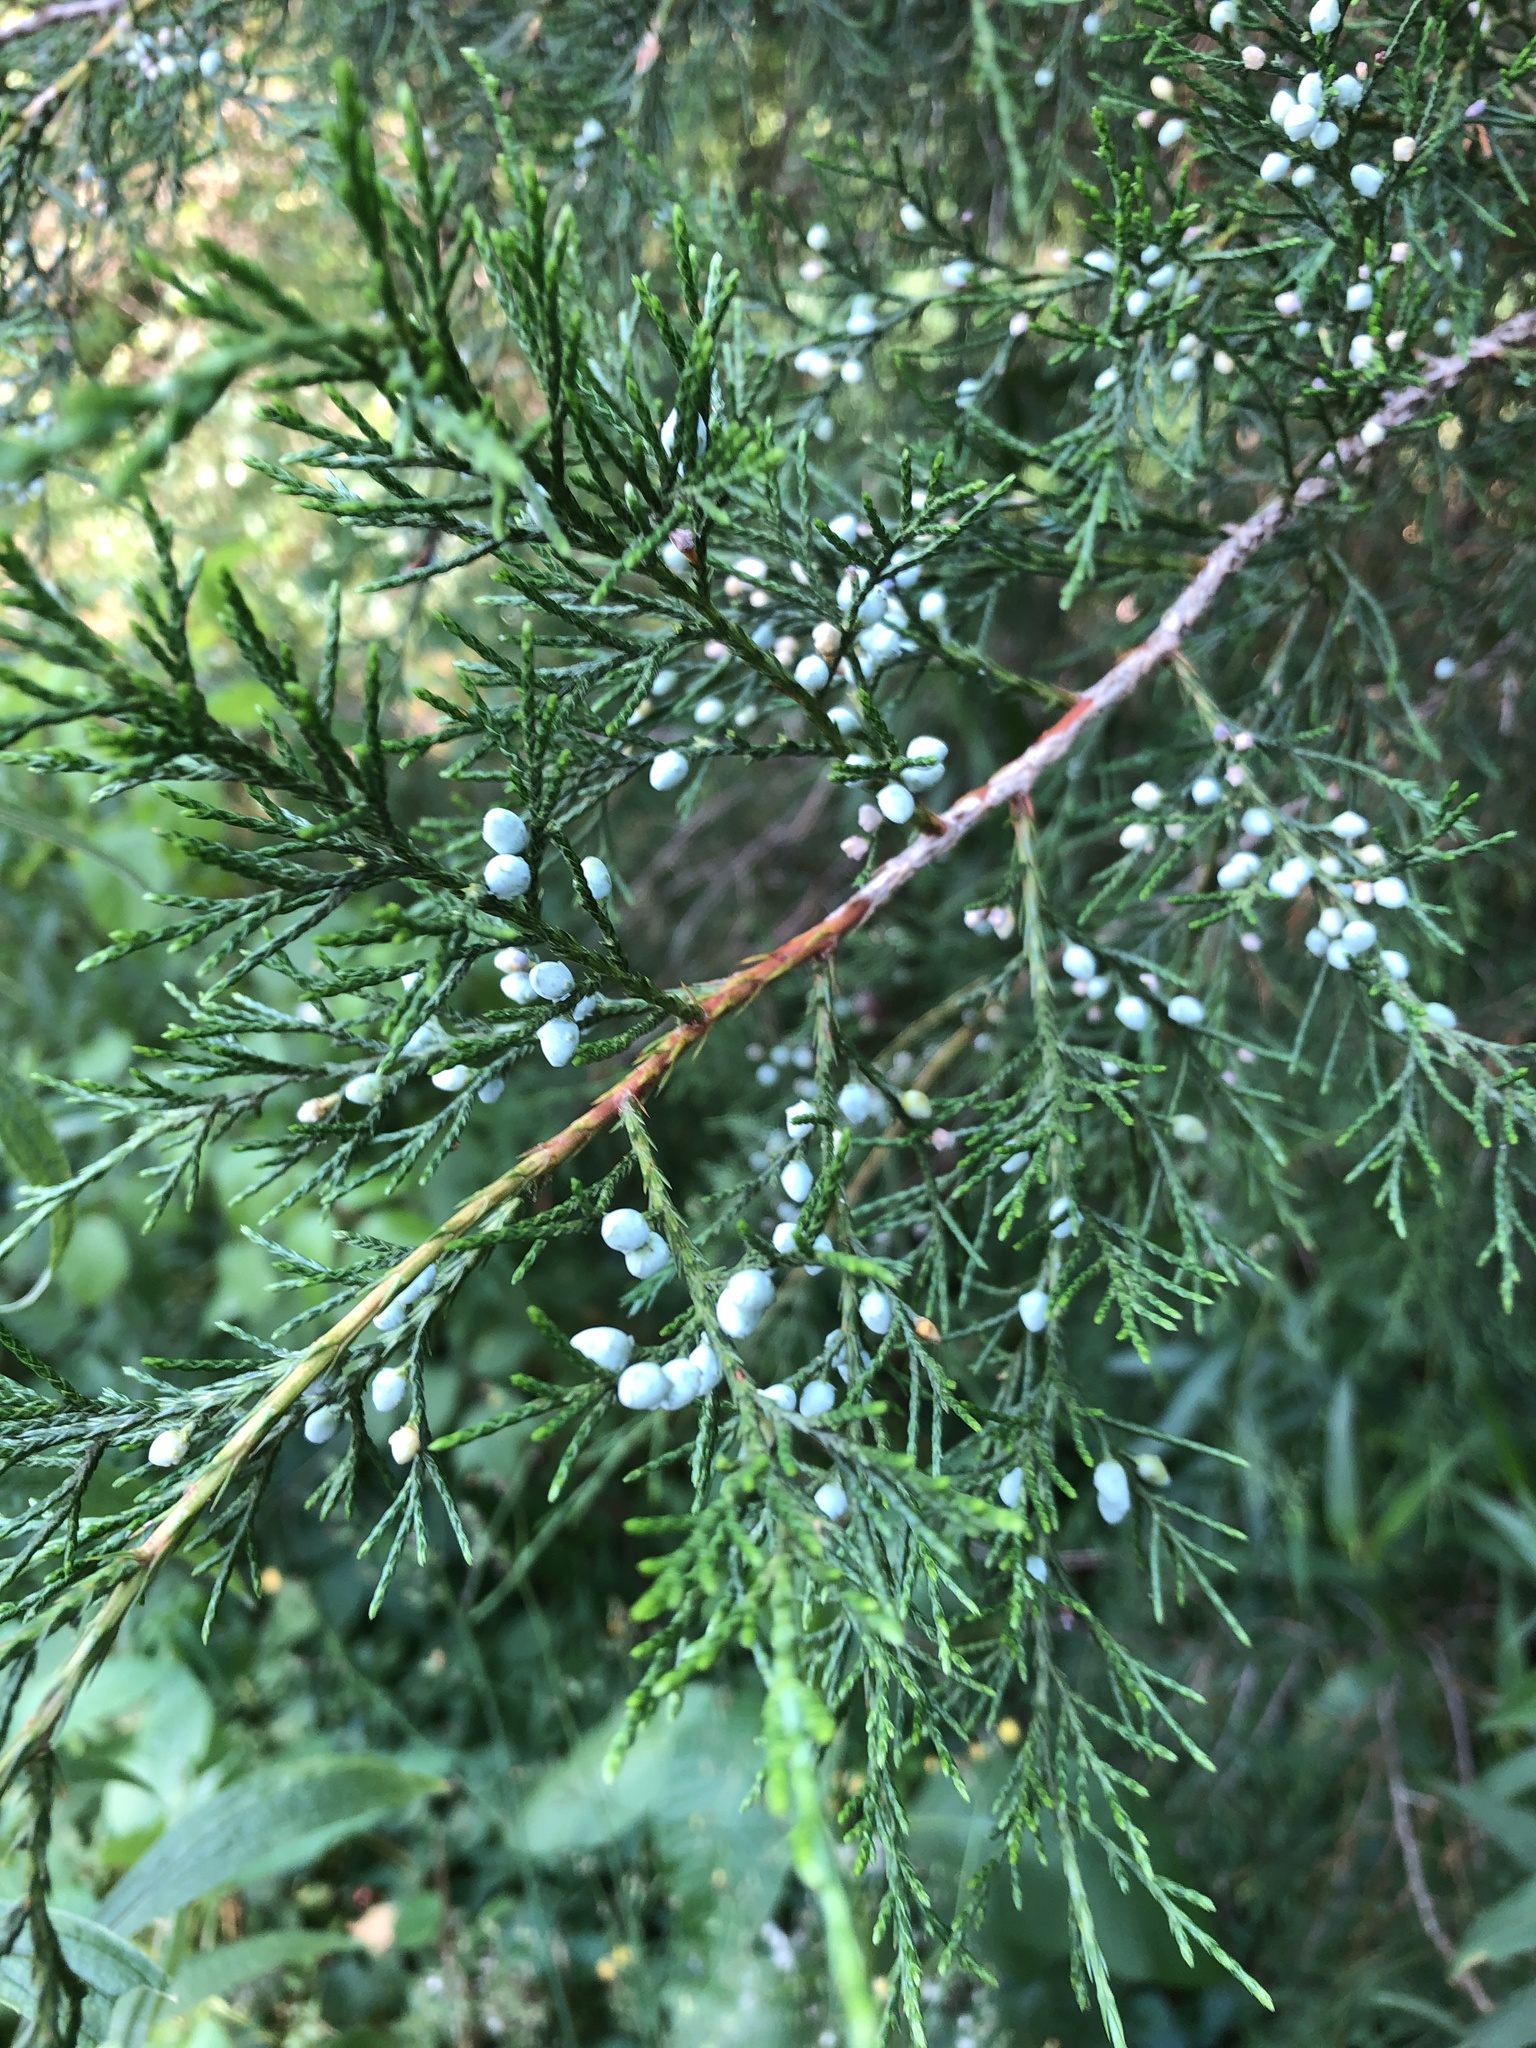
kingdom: Plantae
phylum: Tracheophyta
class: Pinopsida
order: Pinales
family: Cupressaceae
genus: Juniperus
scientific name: Juniperus virginiana
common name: Red juniper
